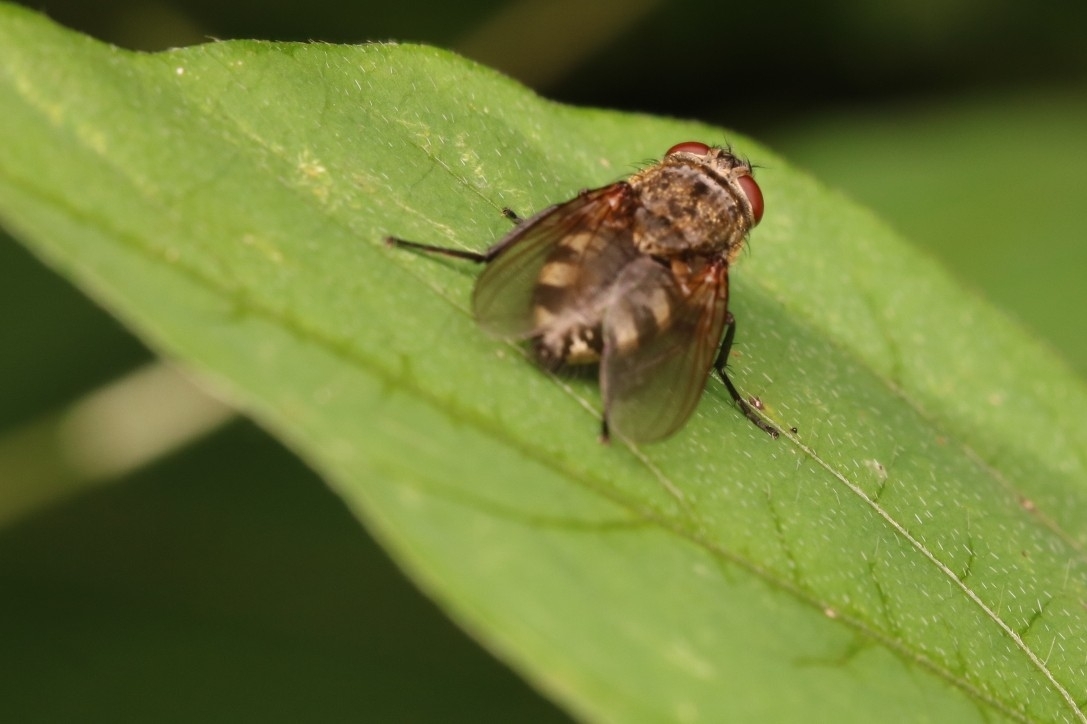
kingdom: Animalia
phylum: Arthropoda
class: Insecta
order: Diptera
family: Polleniidae
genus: Pollenia
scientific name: Pollenia
